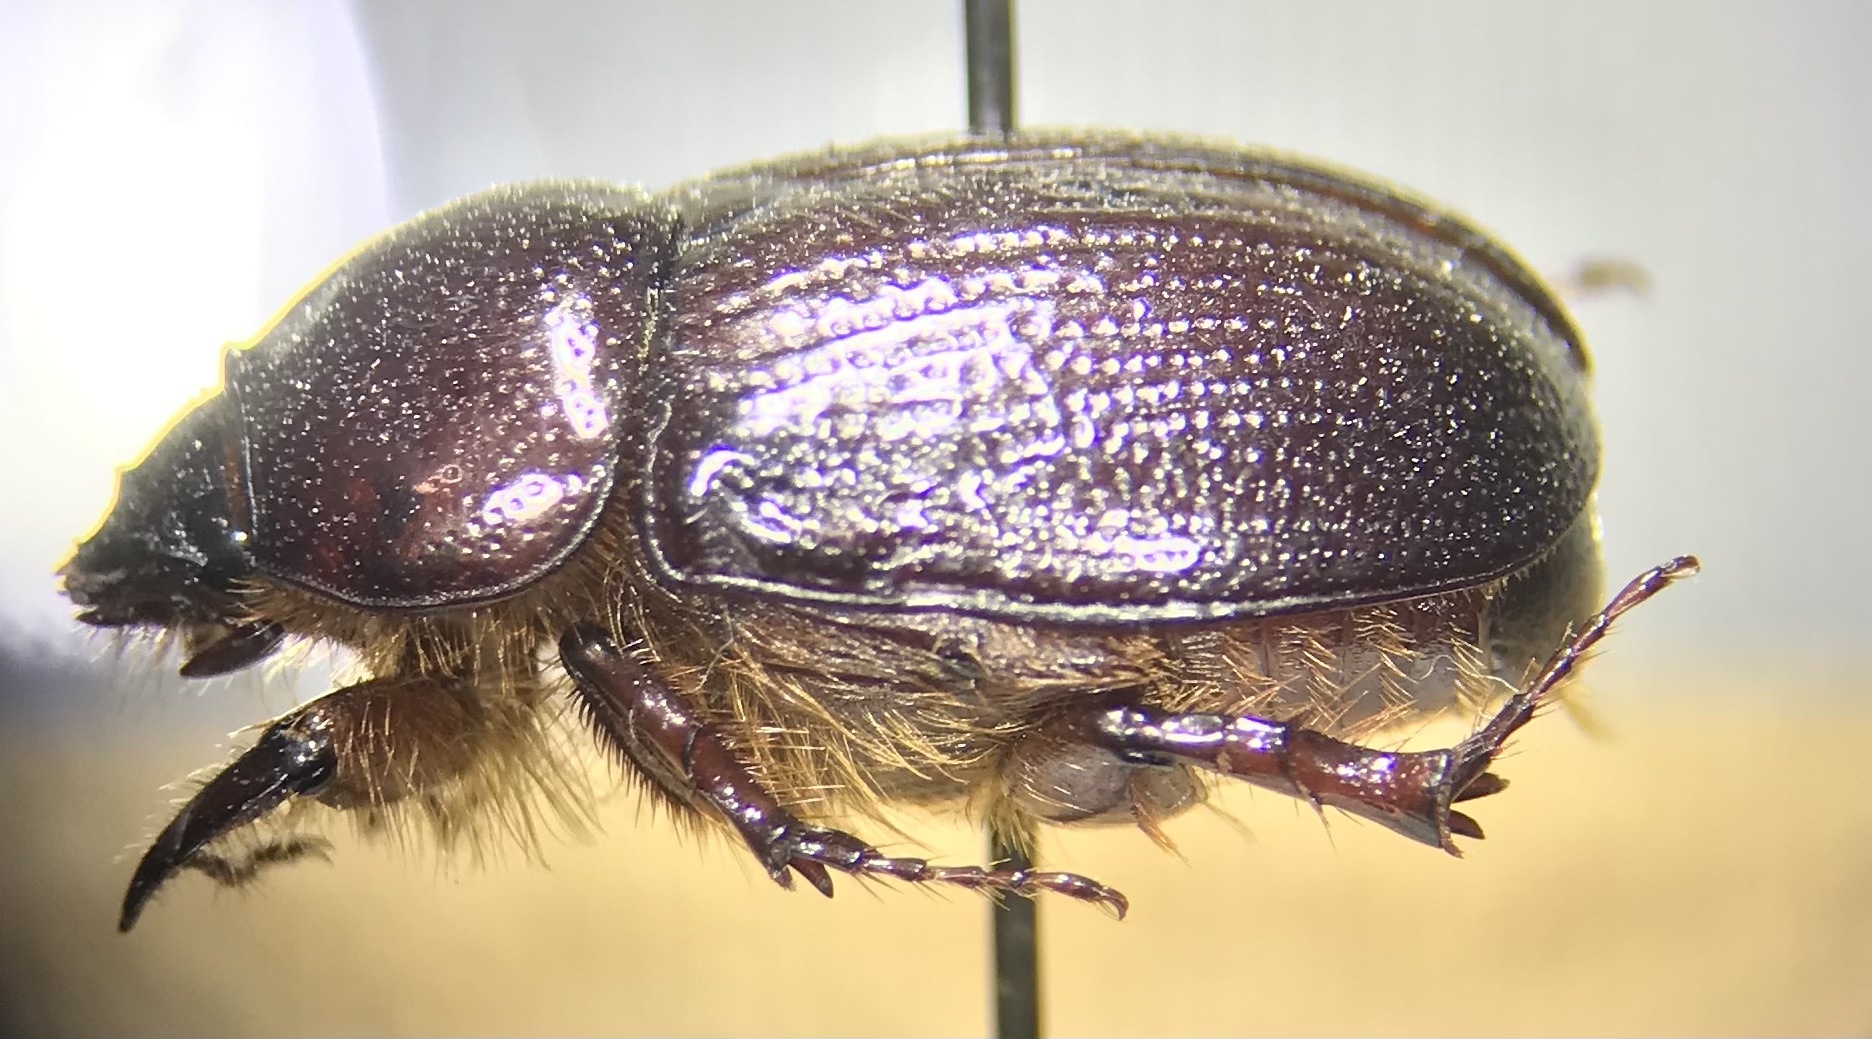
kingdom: Animalia
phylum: Arthropoda
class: Insecta
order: Coleoptera
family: Scarabaeidae
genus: Ligyrus
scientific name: Ligyrus gibbosus
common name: Carrot beetle
